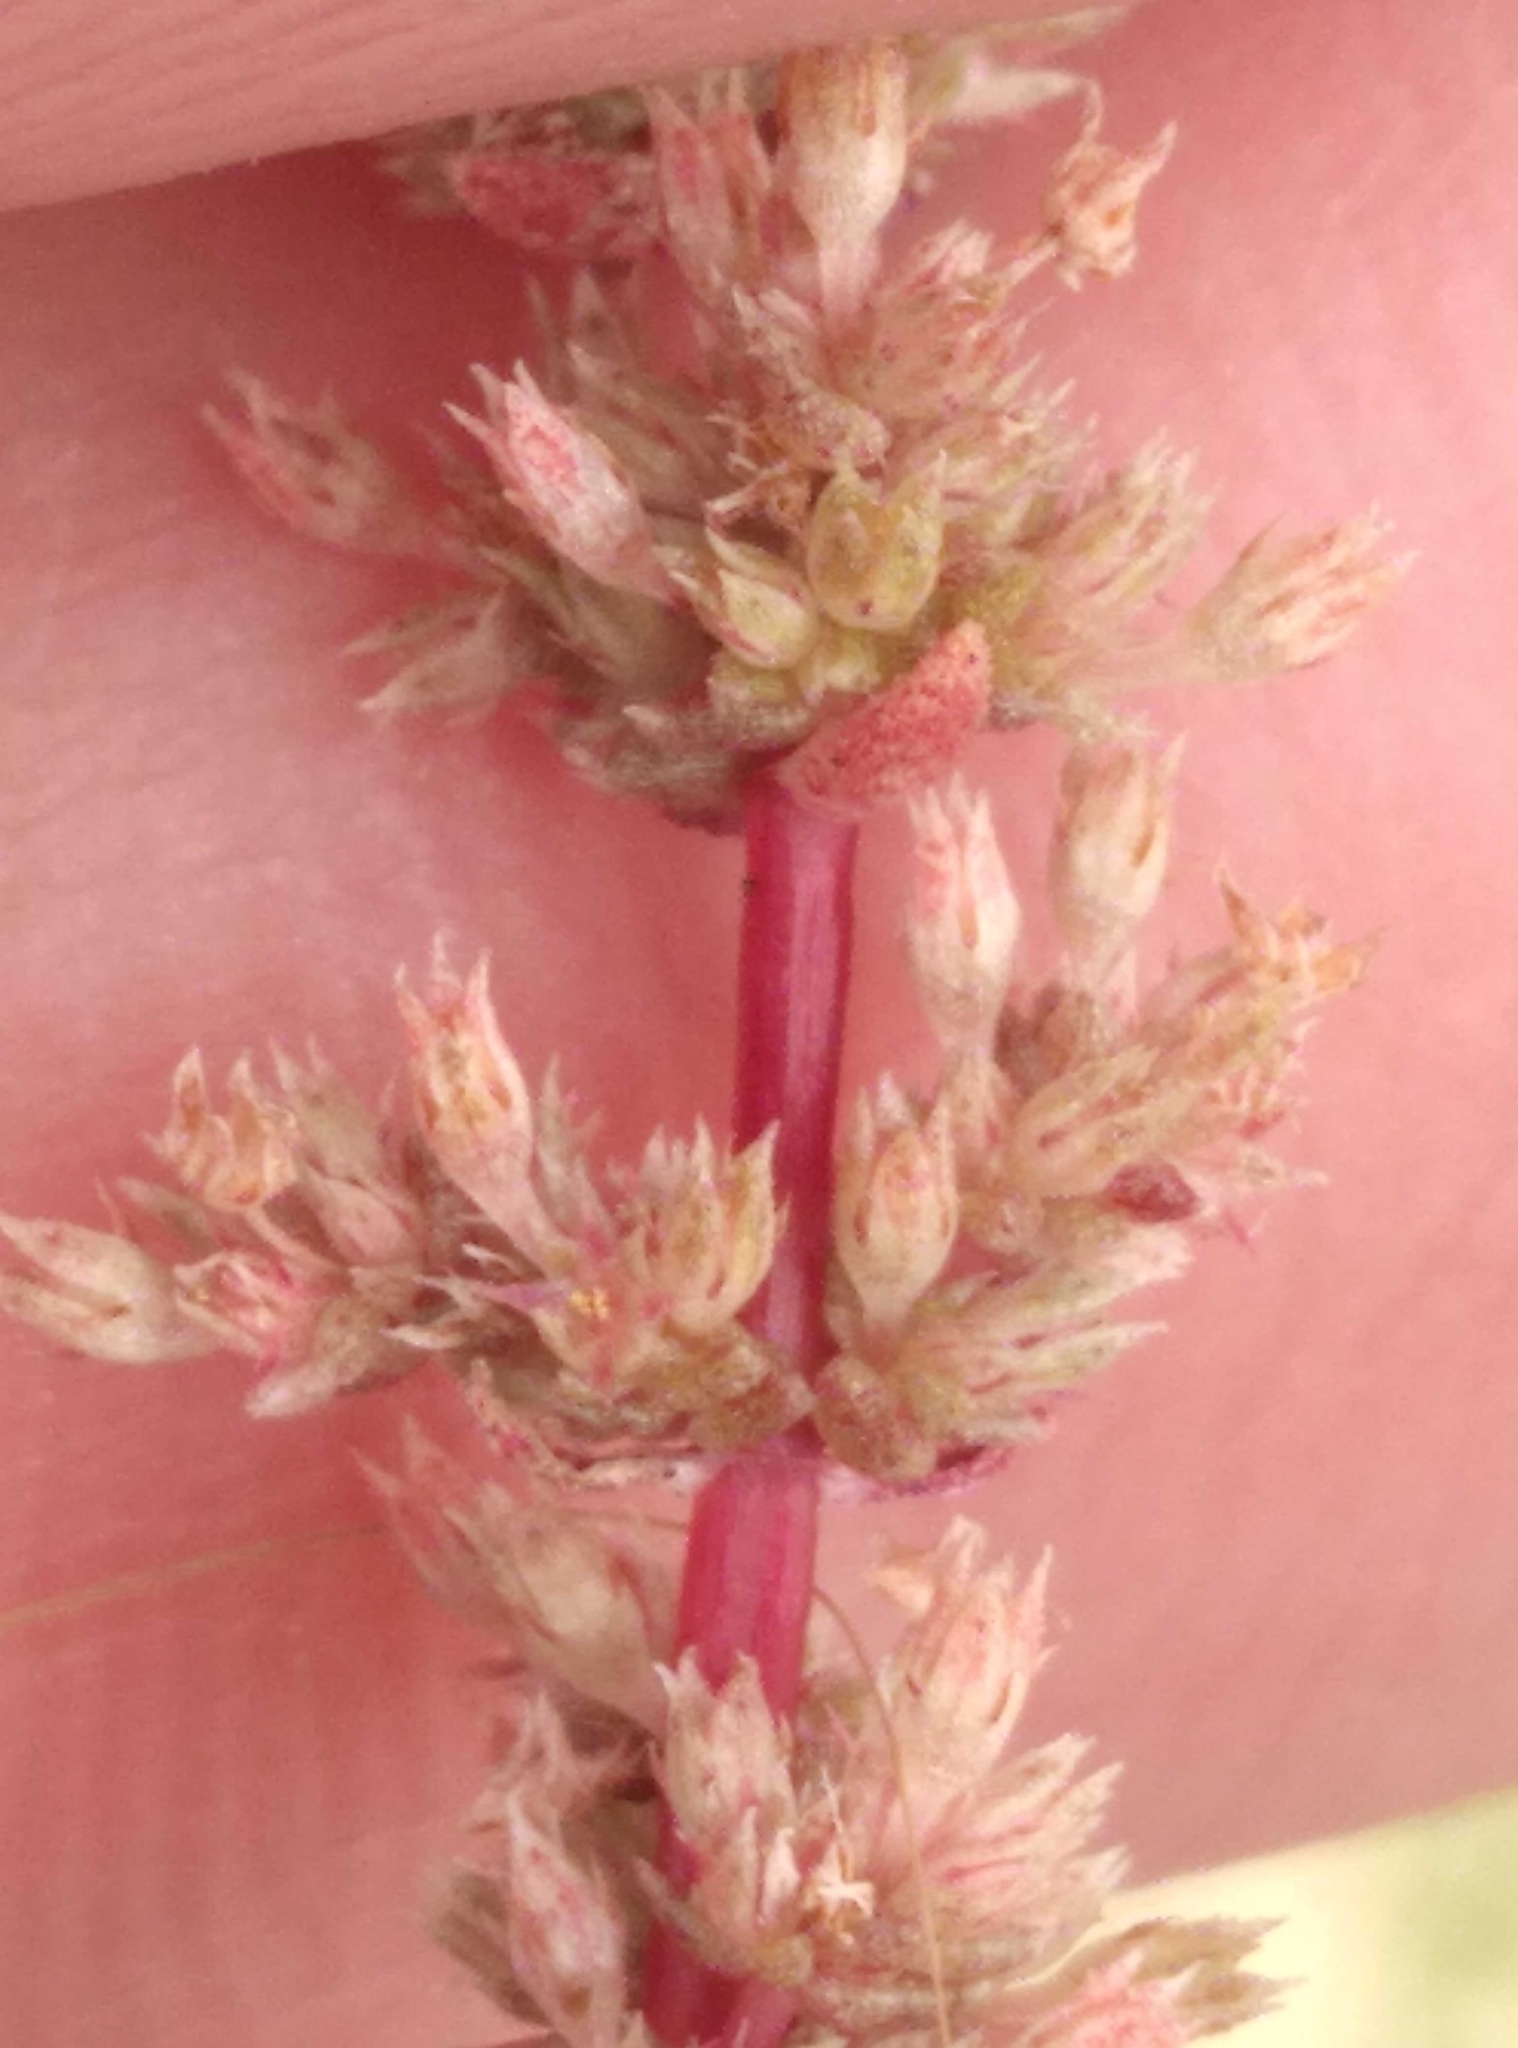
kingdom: Plantae
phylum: Tracheophyta
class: Magnoliopsida
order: Saxifragales
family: Crassulaceae
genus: Crassula
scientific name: Crassula colligata
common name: Pygmyweed
